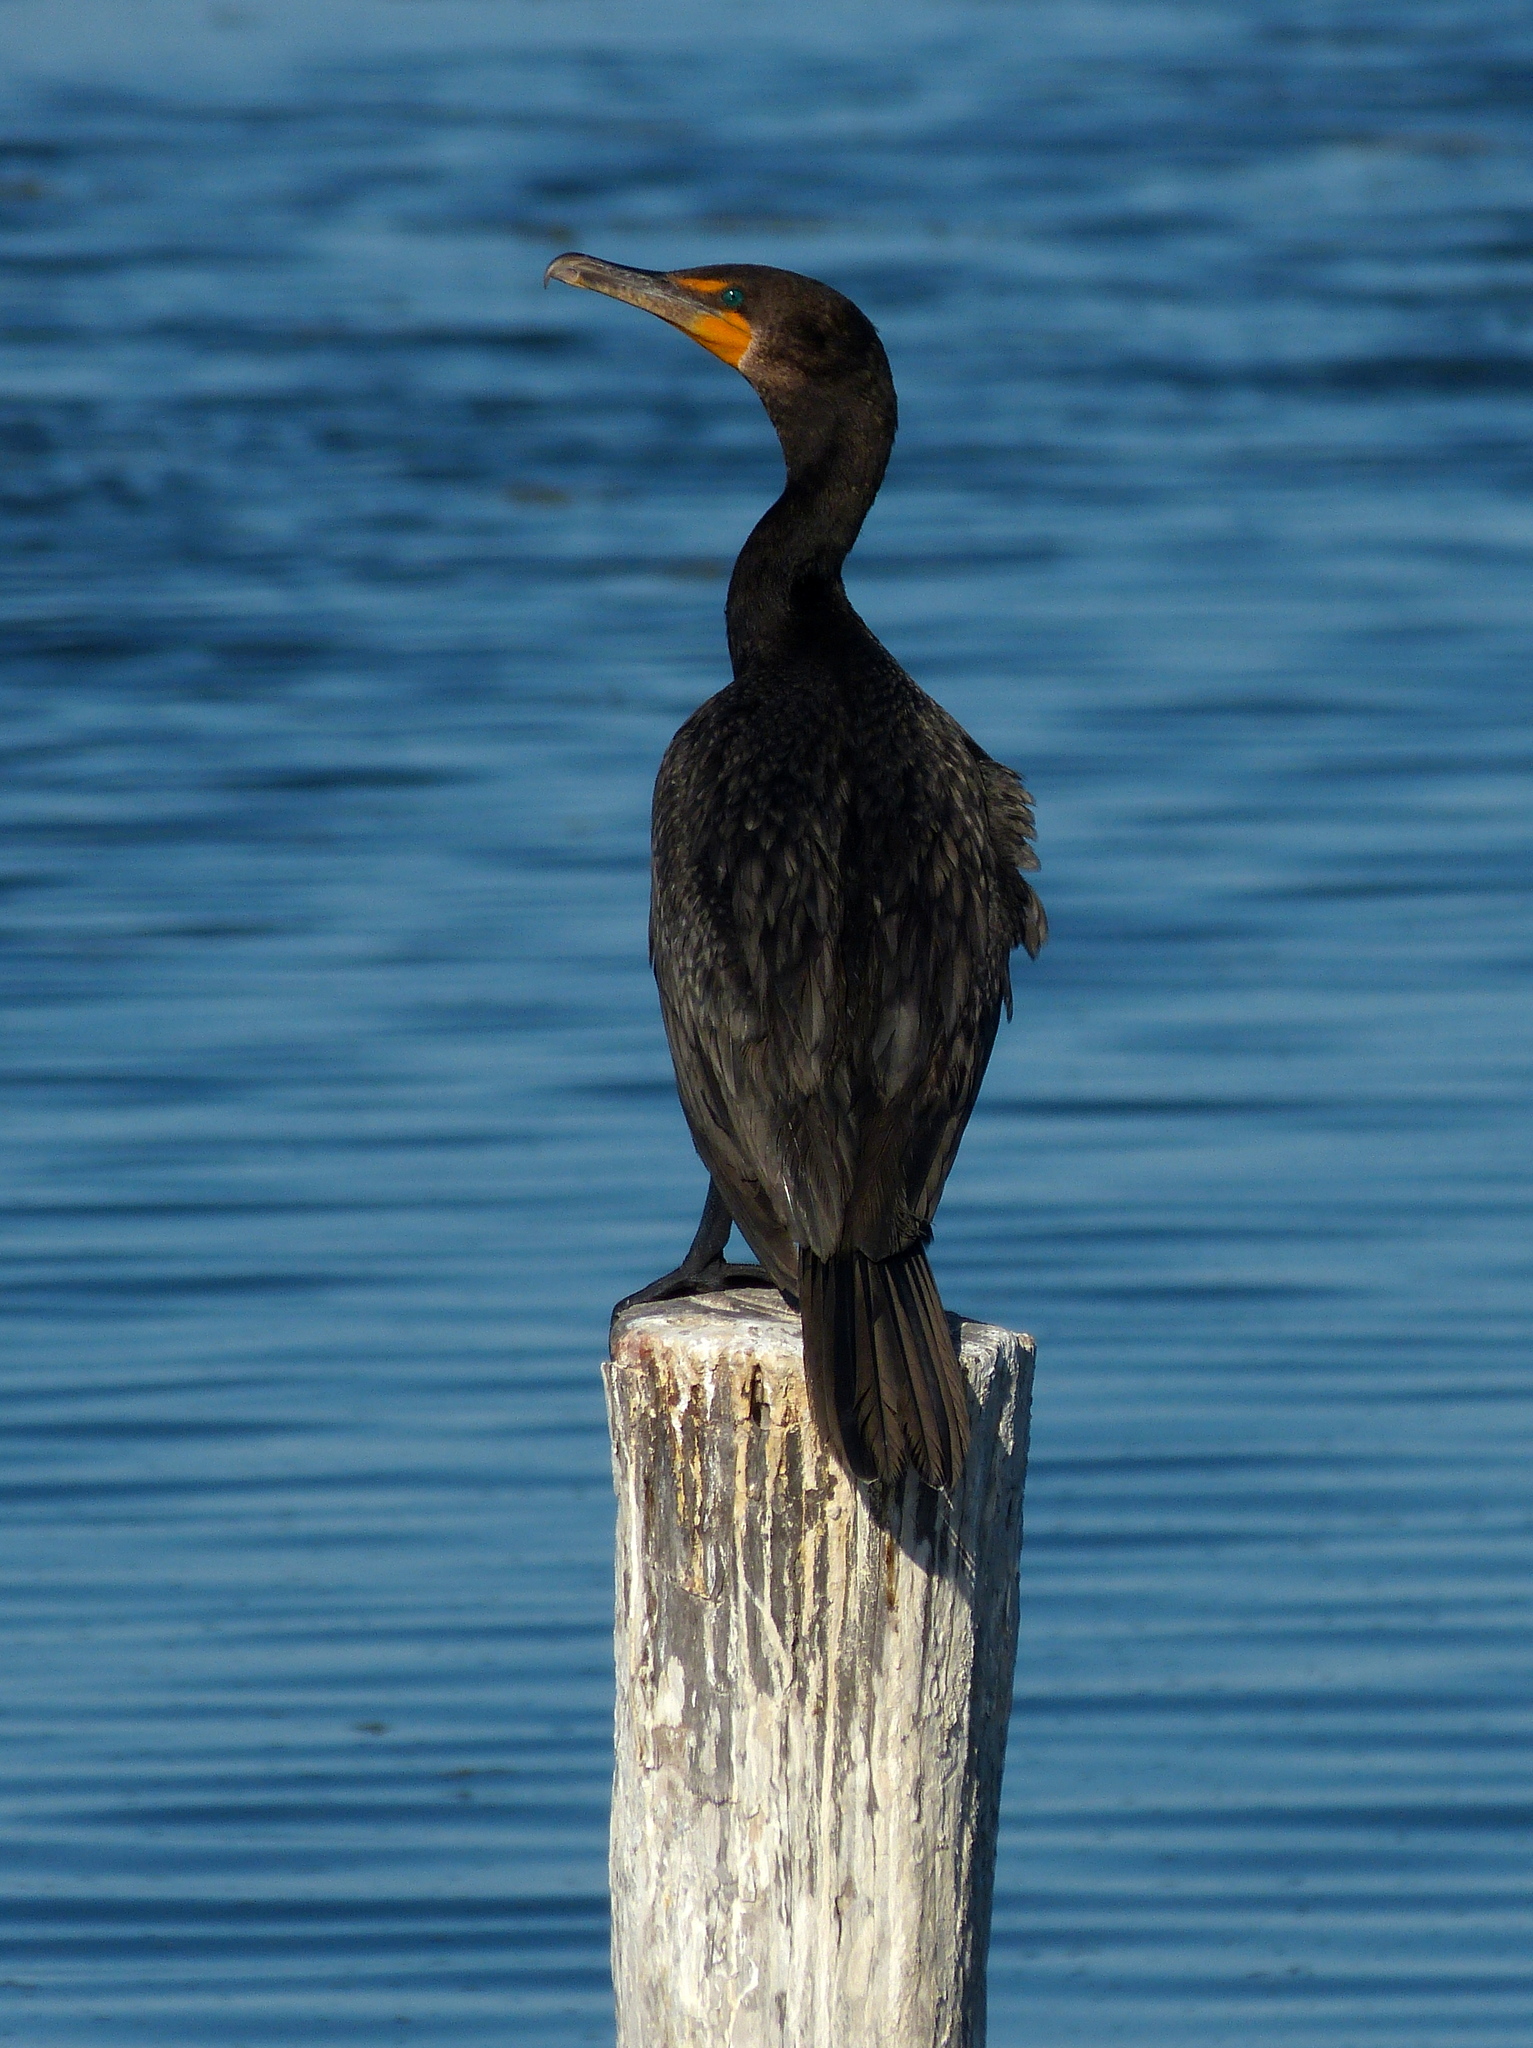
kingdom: Animalia
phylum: Chordata
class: Aves
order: Suliformes
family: Phalacrocoracidae
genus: Phalacrocorax
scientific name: Phalacrocorax auritus
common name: Double-crested cormorant
